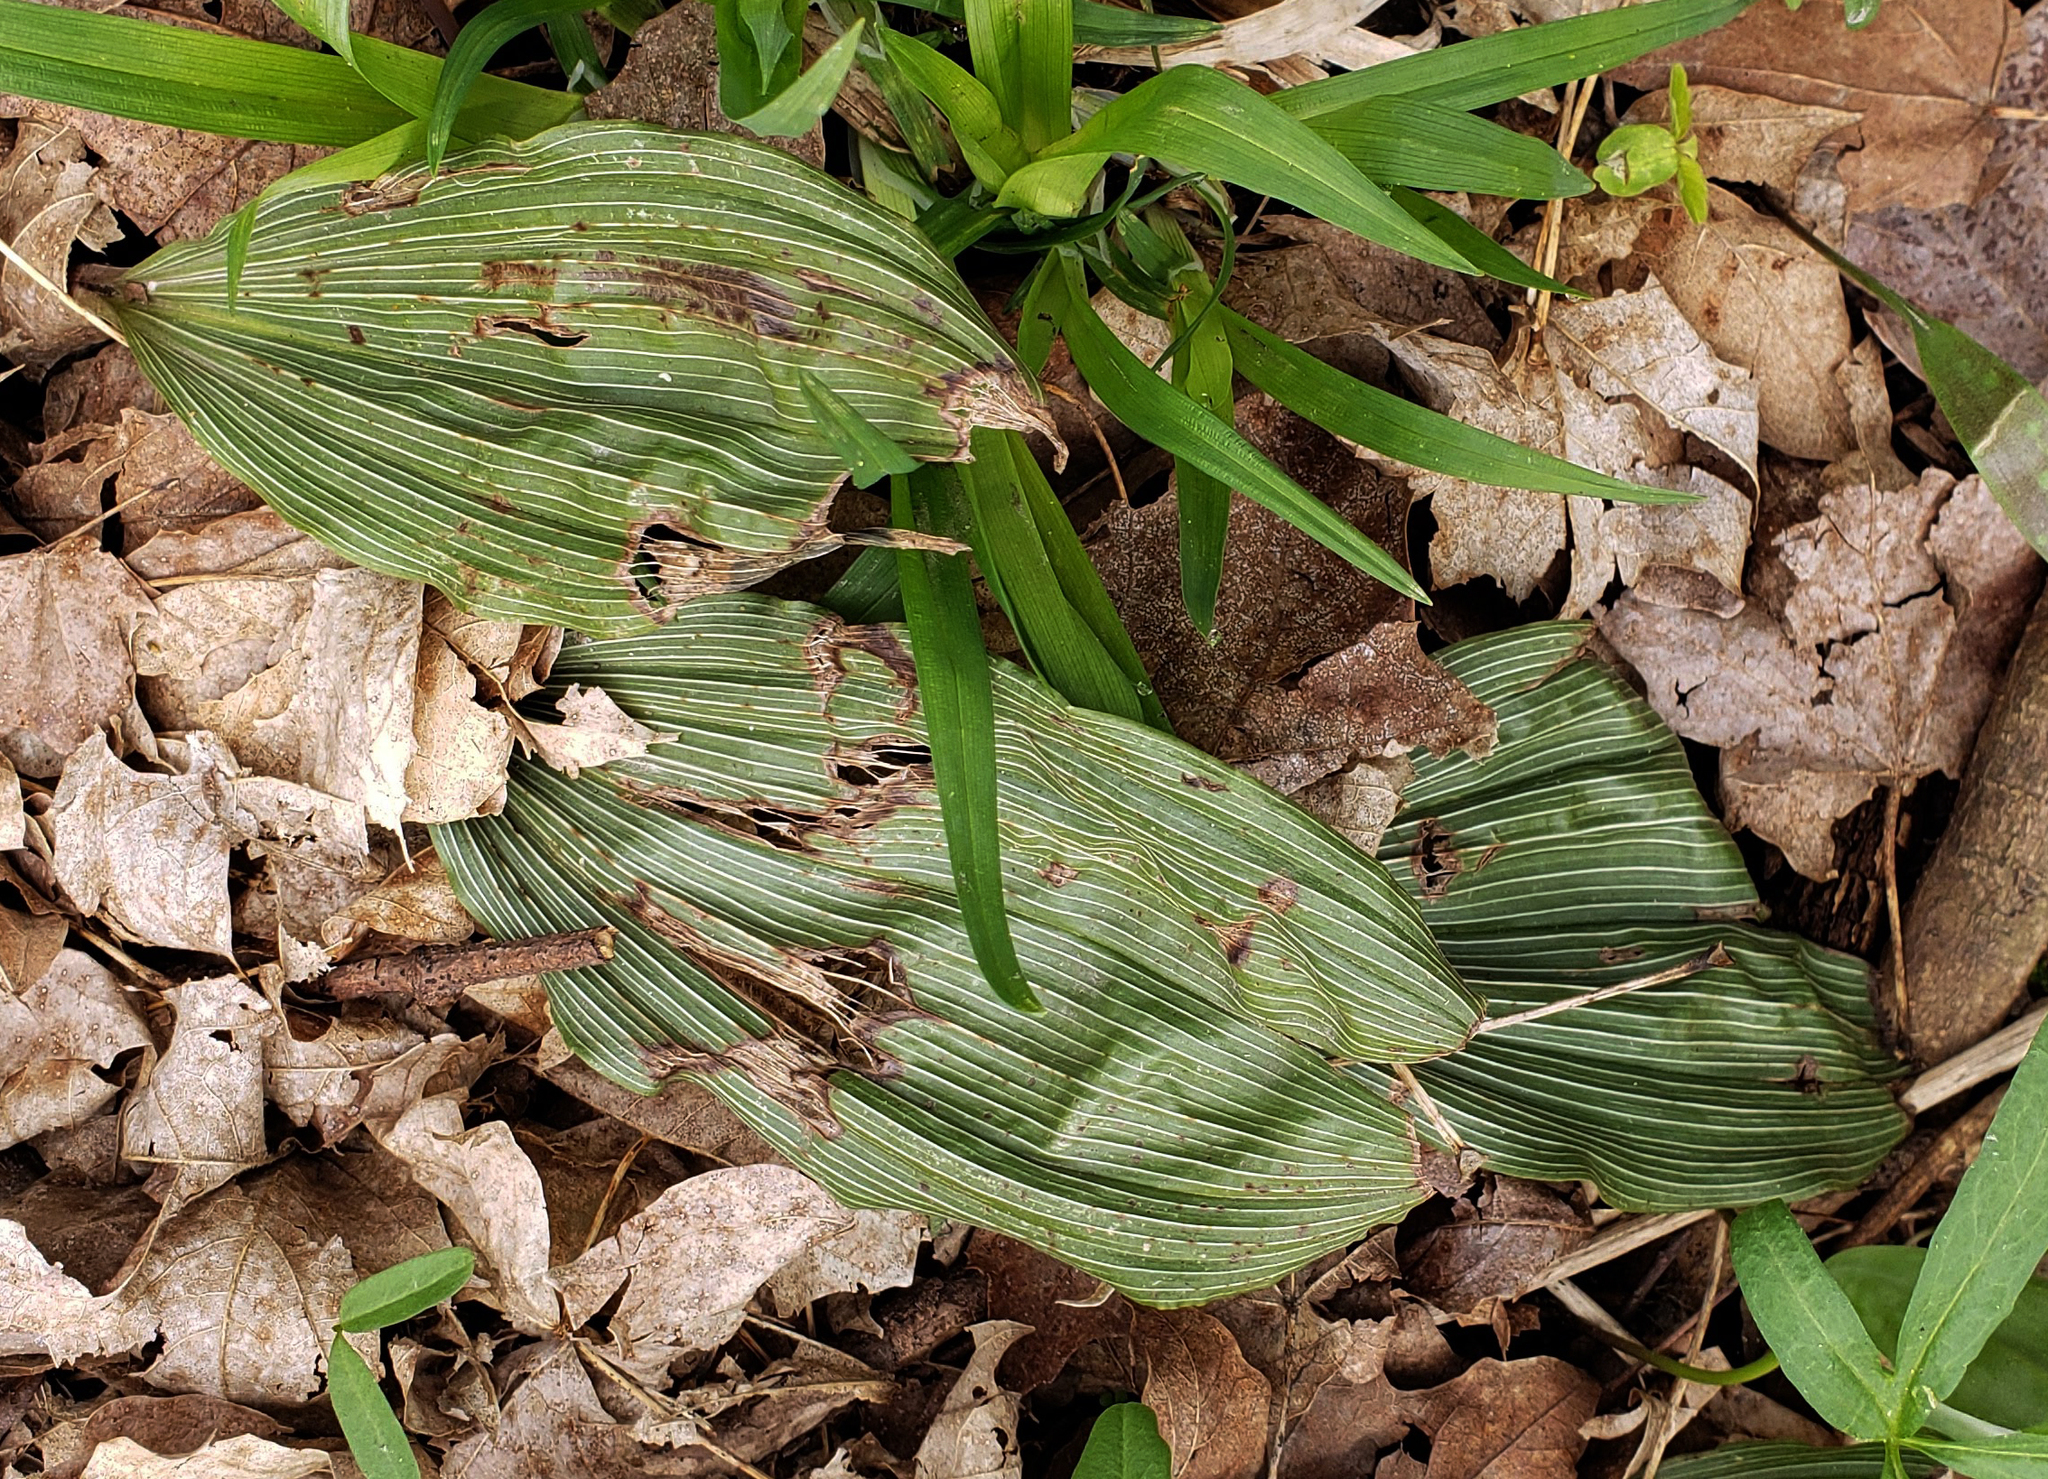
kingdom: Plantae
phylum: Tracheophyta
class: Liliopsida
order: Asparagales
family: Orchidaceae
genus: Aplectrum
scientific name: Aplectrum hyemale
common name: Adam-and-eve
